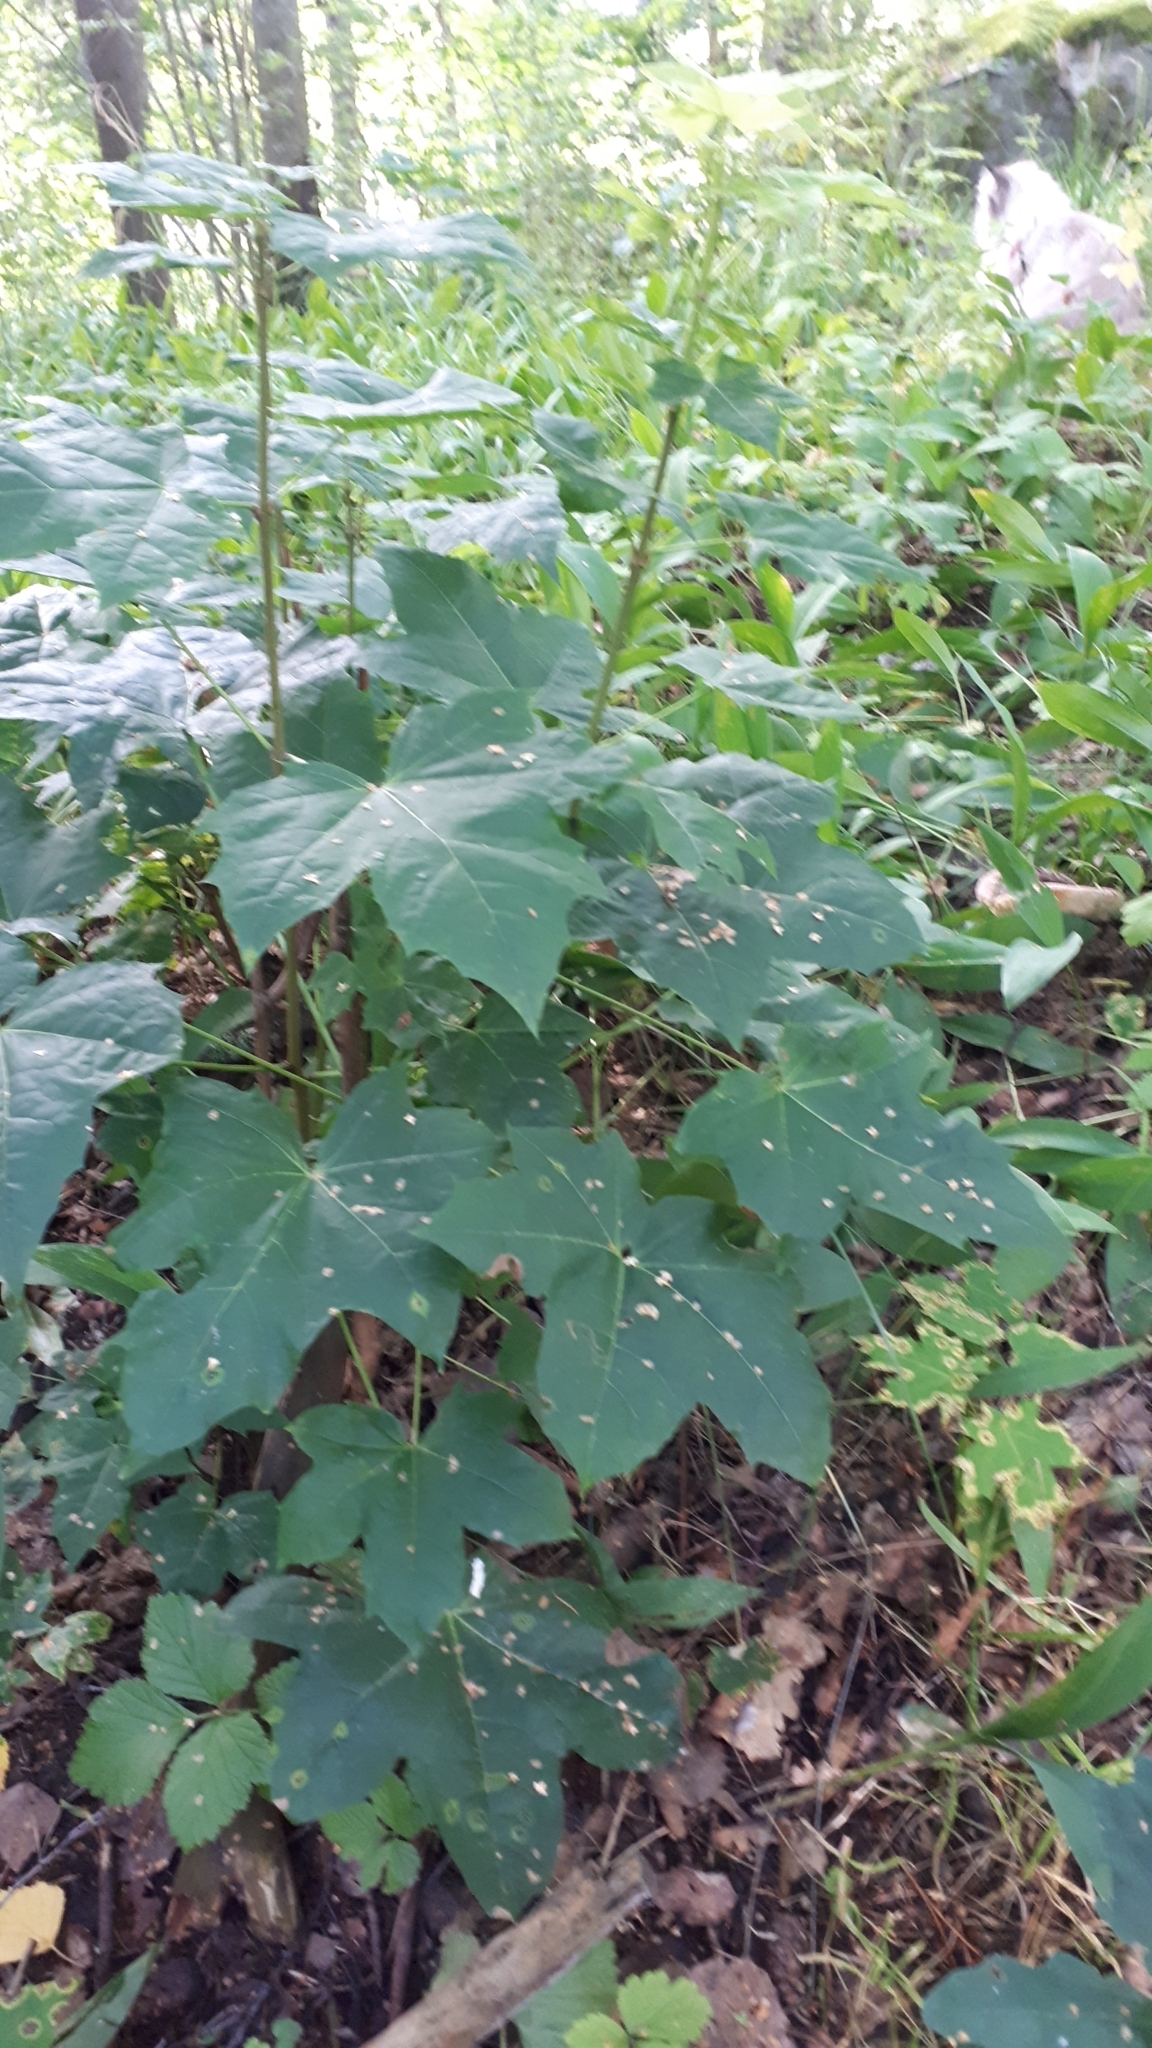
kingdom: Plantae
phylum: Tracheophyta
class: Magnoliopsida
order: Sapindales
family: Sapindaceae
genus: Acer
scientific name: Acer platanoides
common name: Norway maple
